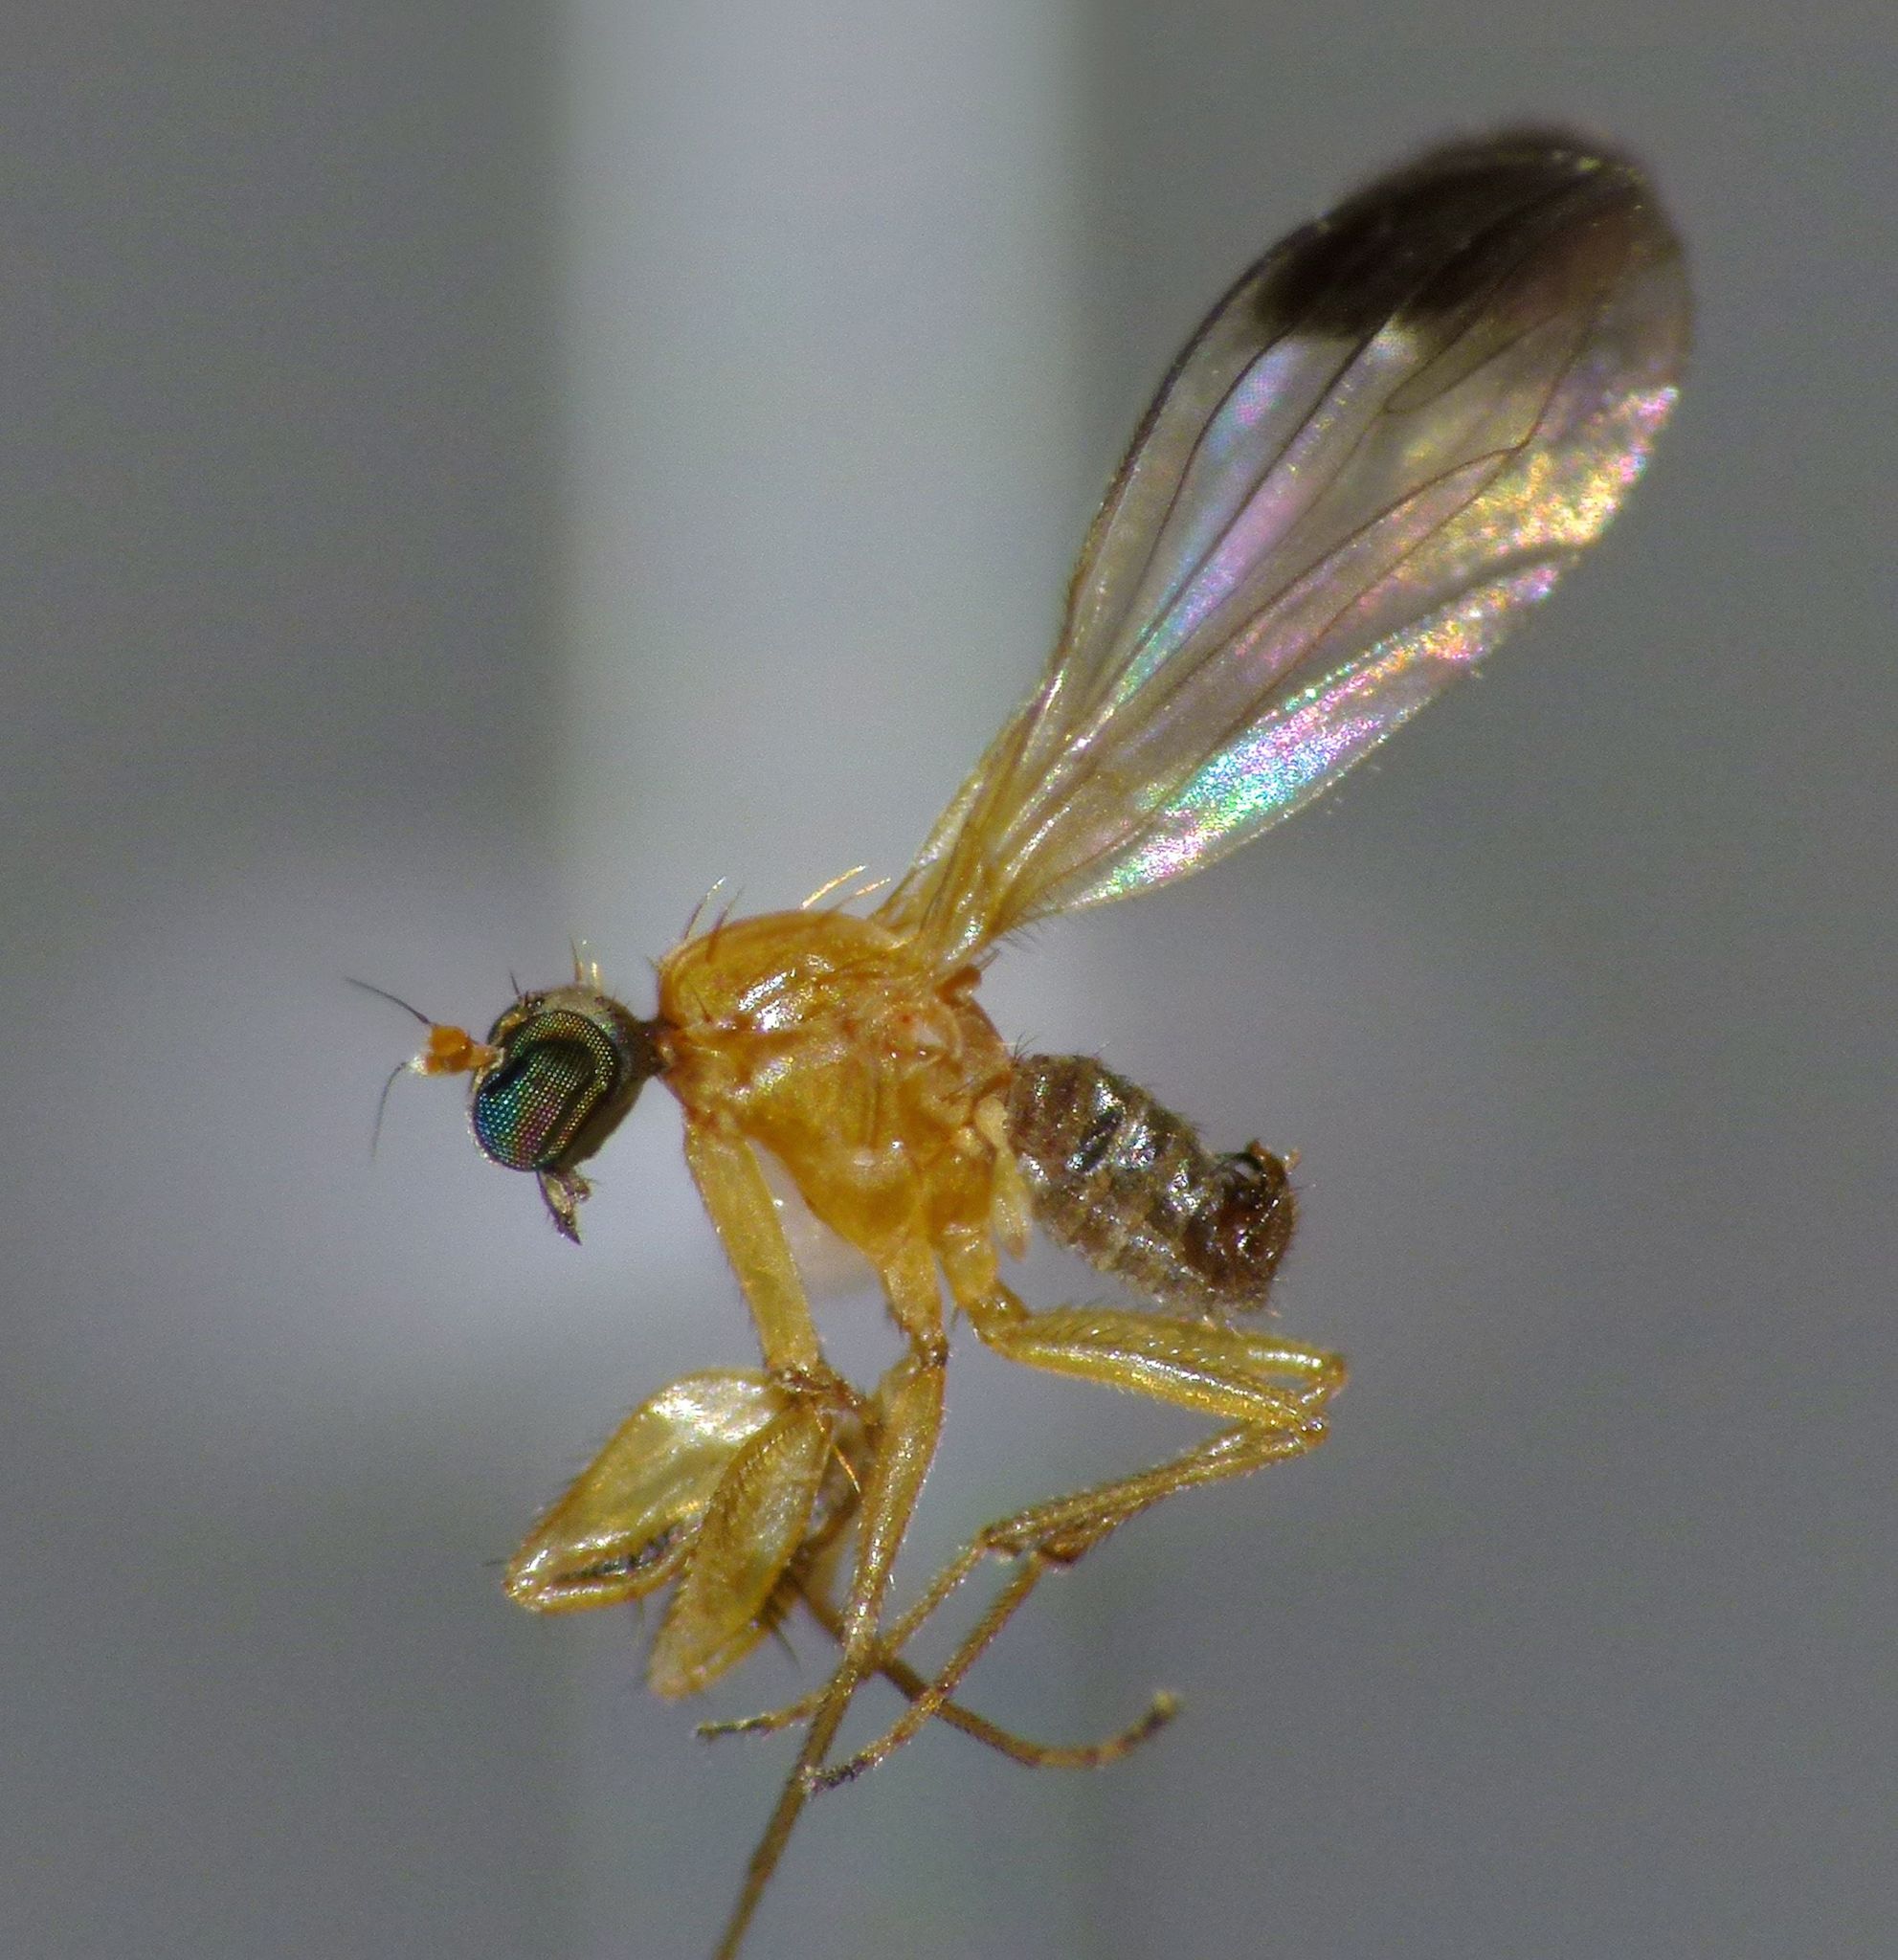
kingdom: Animalia
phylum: Arthropoda
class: Insecta
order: Diptera
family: Empididae
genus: Phyllodromia
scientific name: Phyllodromia floridula
